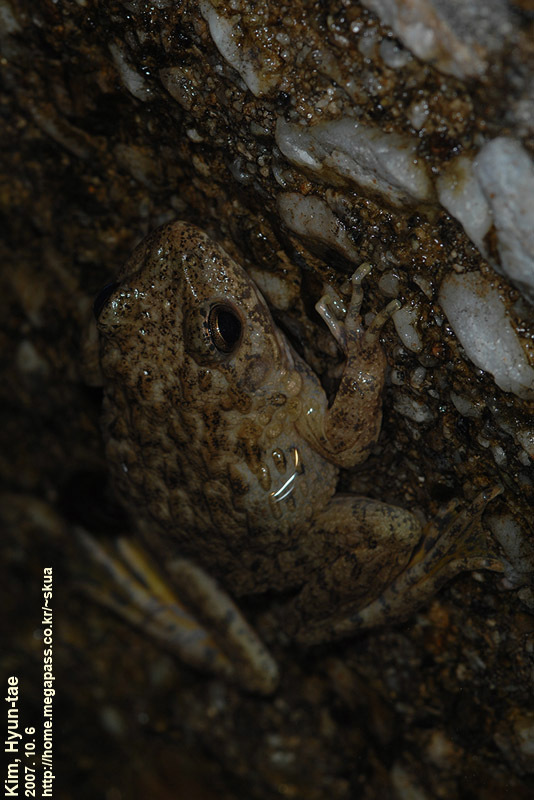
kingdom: Animalia
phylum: Chordata
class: Amphibia
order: Anura
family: Ranidae
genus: Glandirana
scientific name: Glandirana emeljanovi
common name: Northeast china rough-skinned frog
